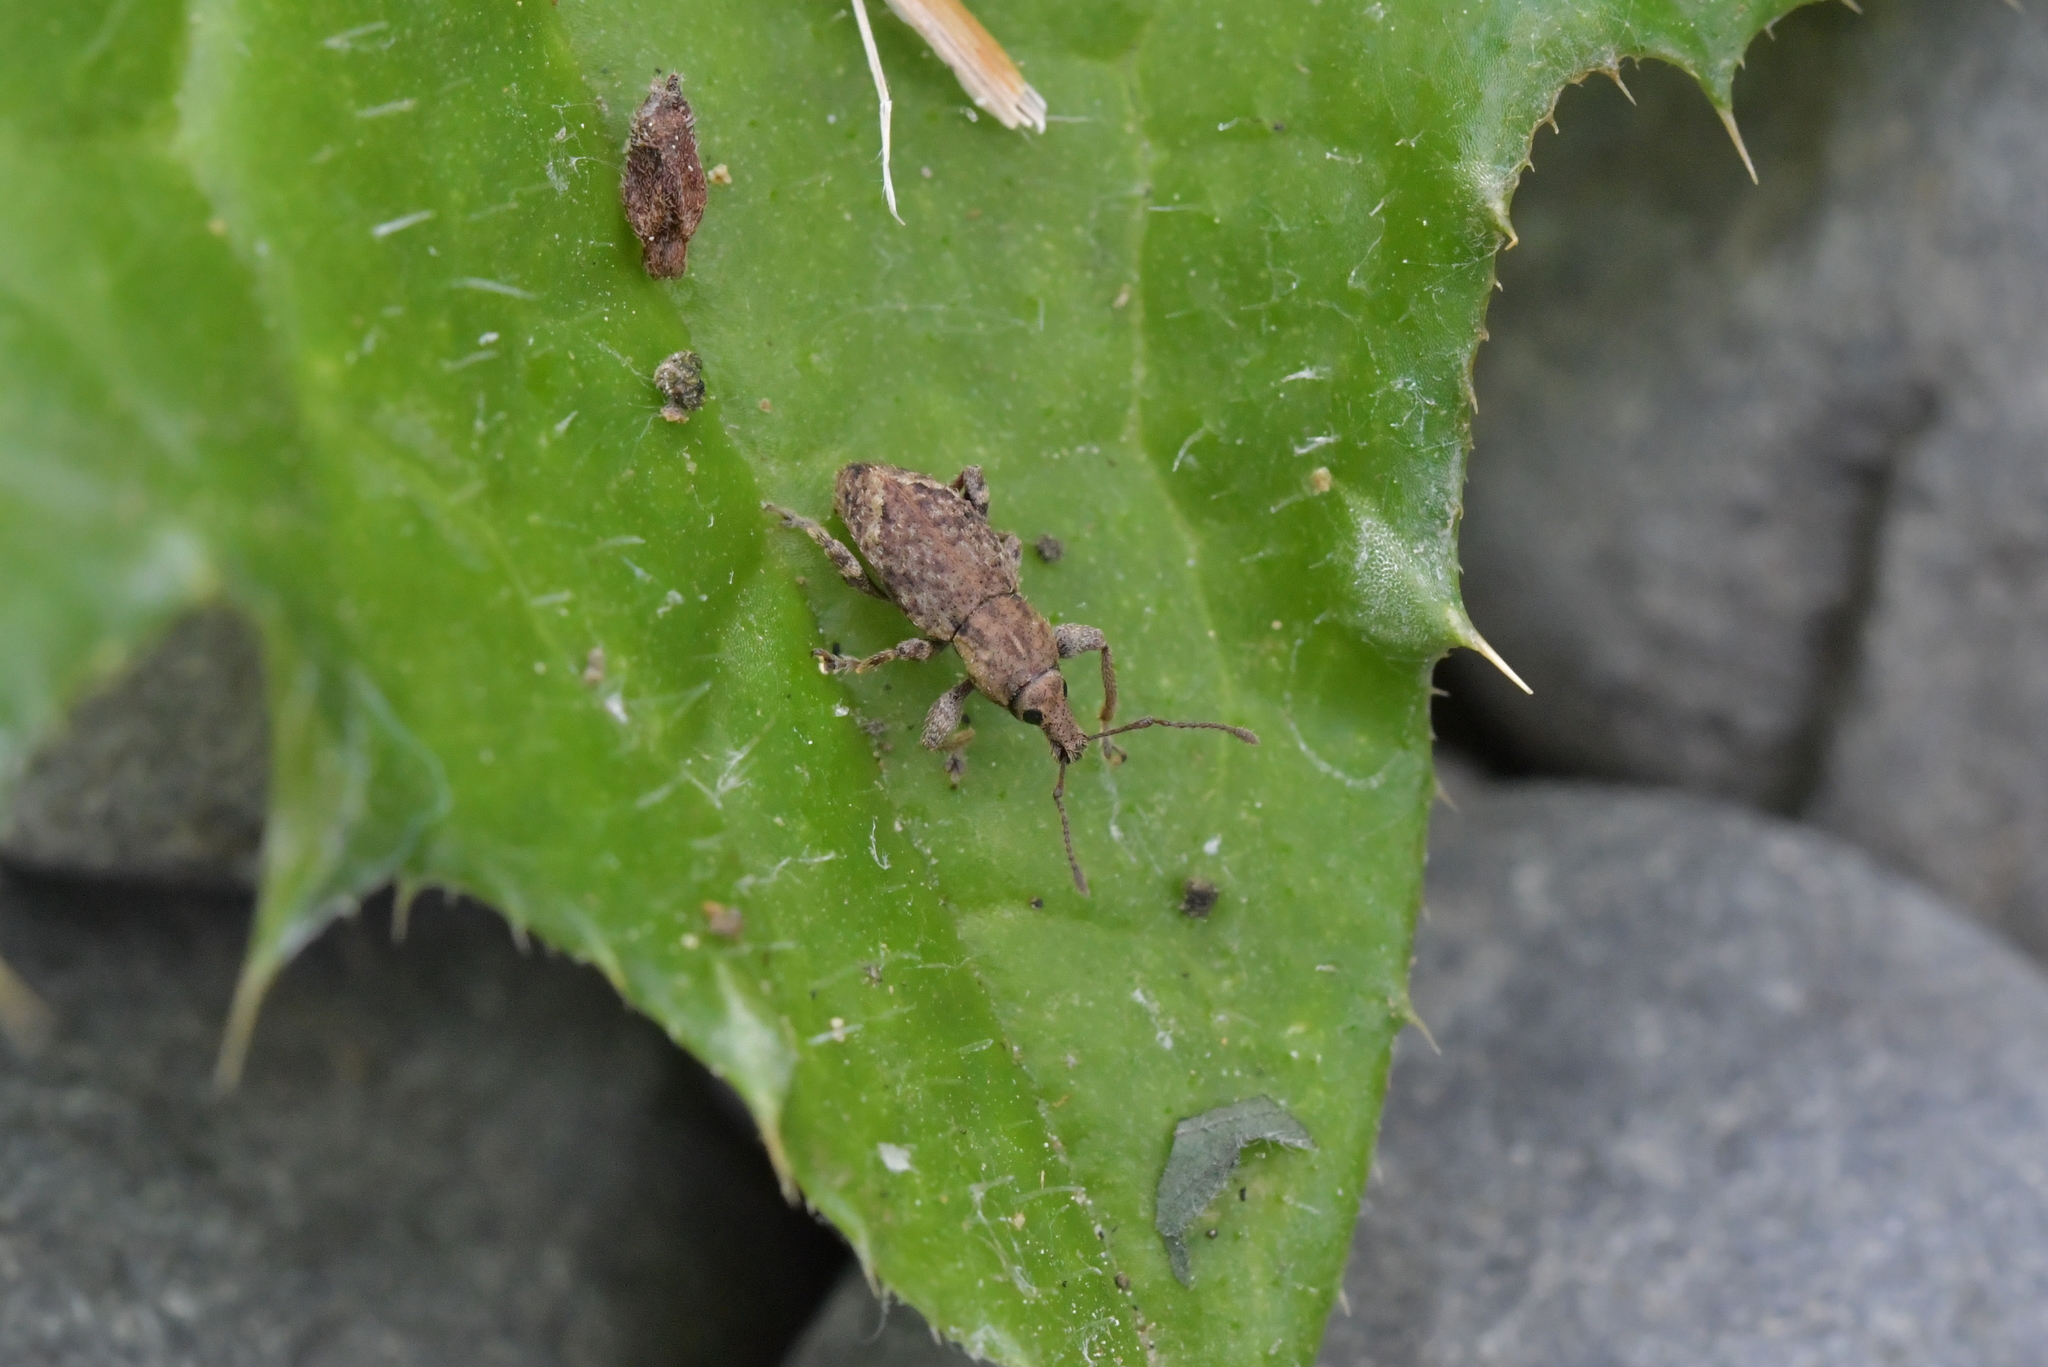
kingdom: Animalia
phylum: Arthropoda
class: Insecta
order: Coleoptera
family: Curculionidae
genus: Chalepistes
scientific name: Chalepistes compressus
